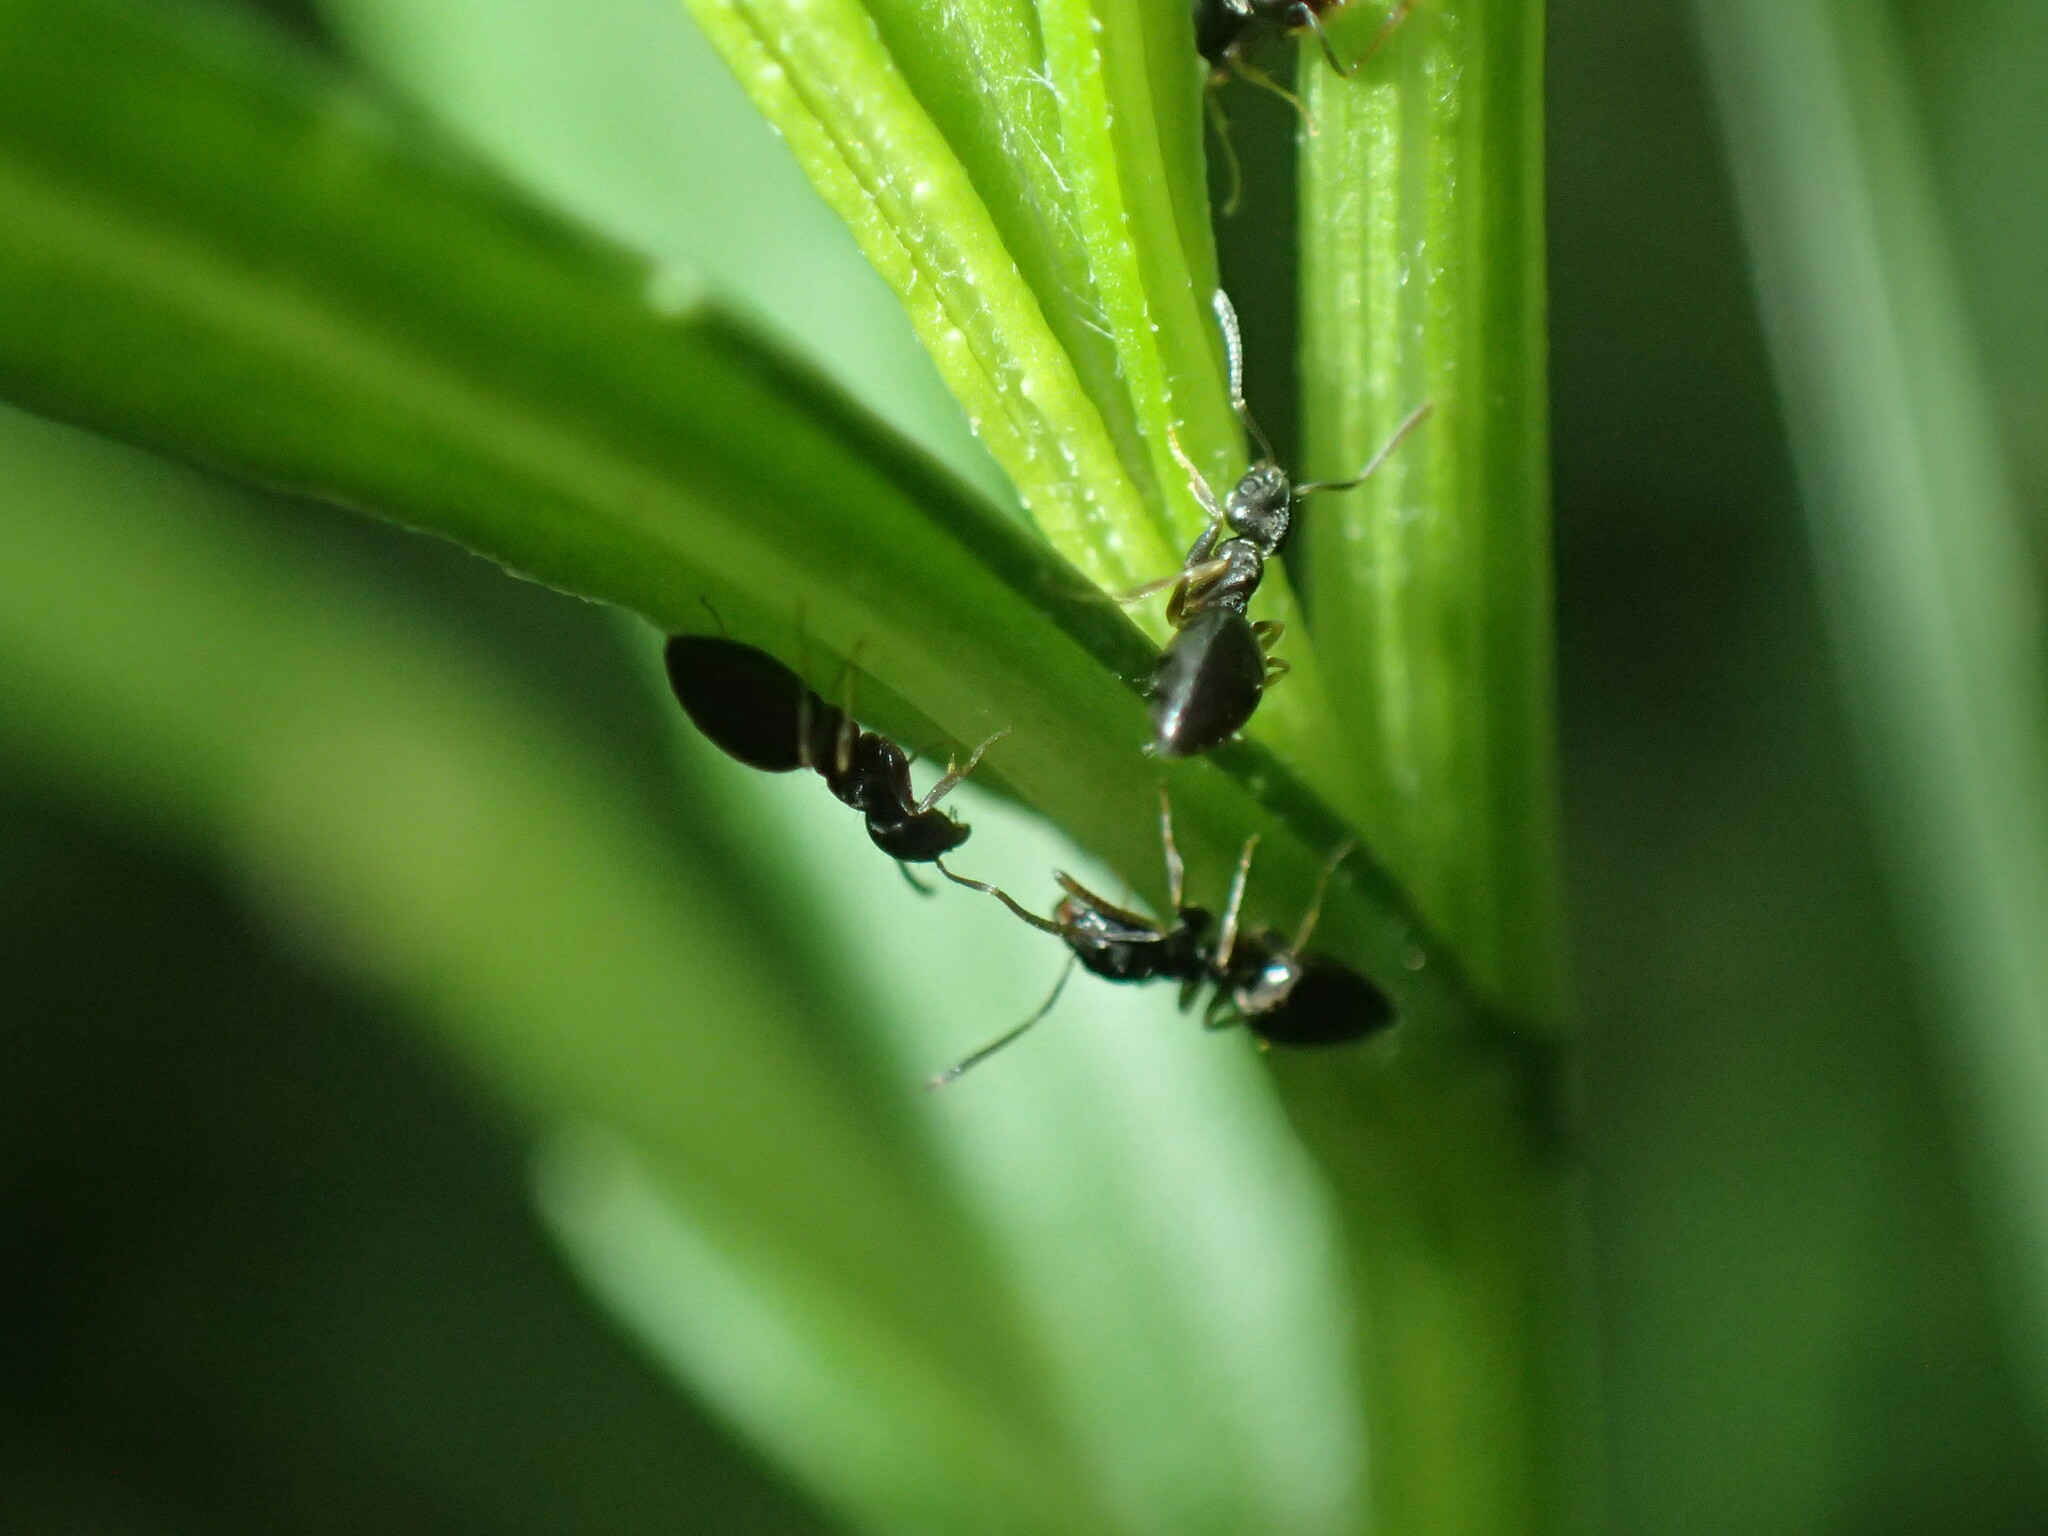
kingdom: Animalia
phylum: Arthropoda
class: Insecta
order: Hymenoptera
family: Formicidae
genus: Tapinoma
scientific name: Tapinoma pallipes
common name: Ant
